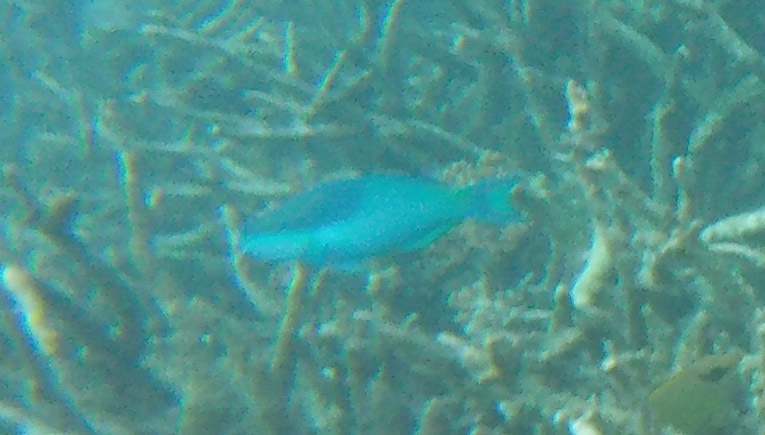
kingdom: Animalia
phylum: Chordata
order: Perciformes
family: Scaridae
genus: Scarus
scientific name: Scarus oviceps
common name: Blue parrotfish
